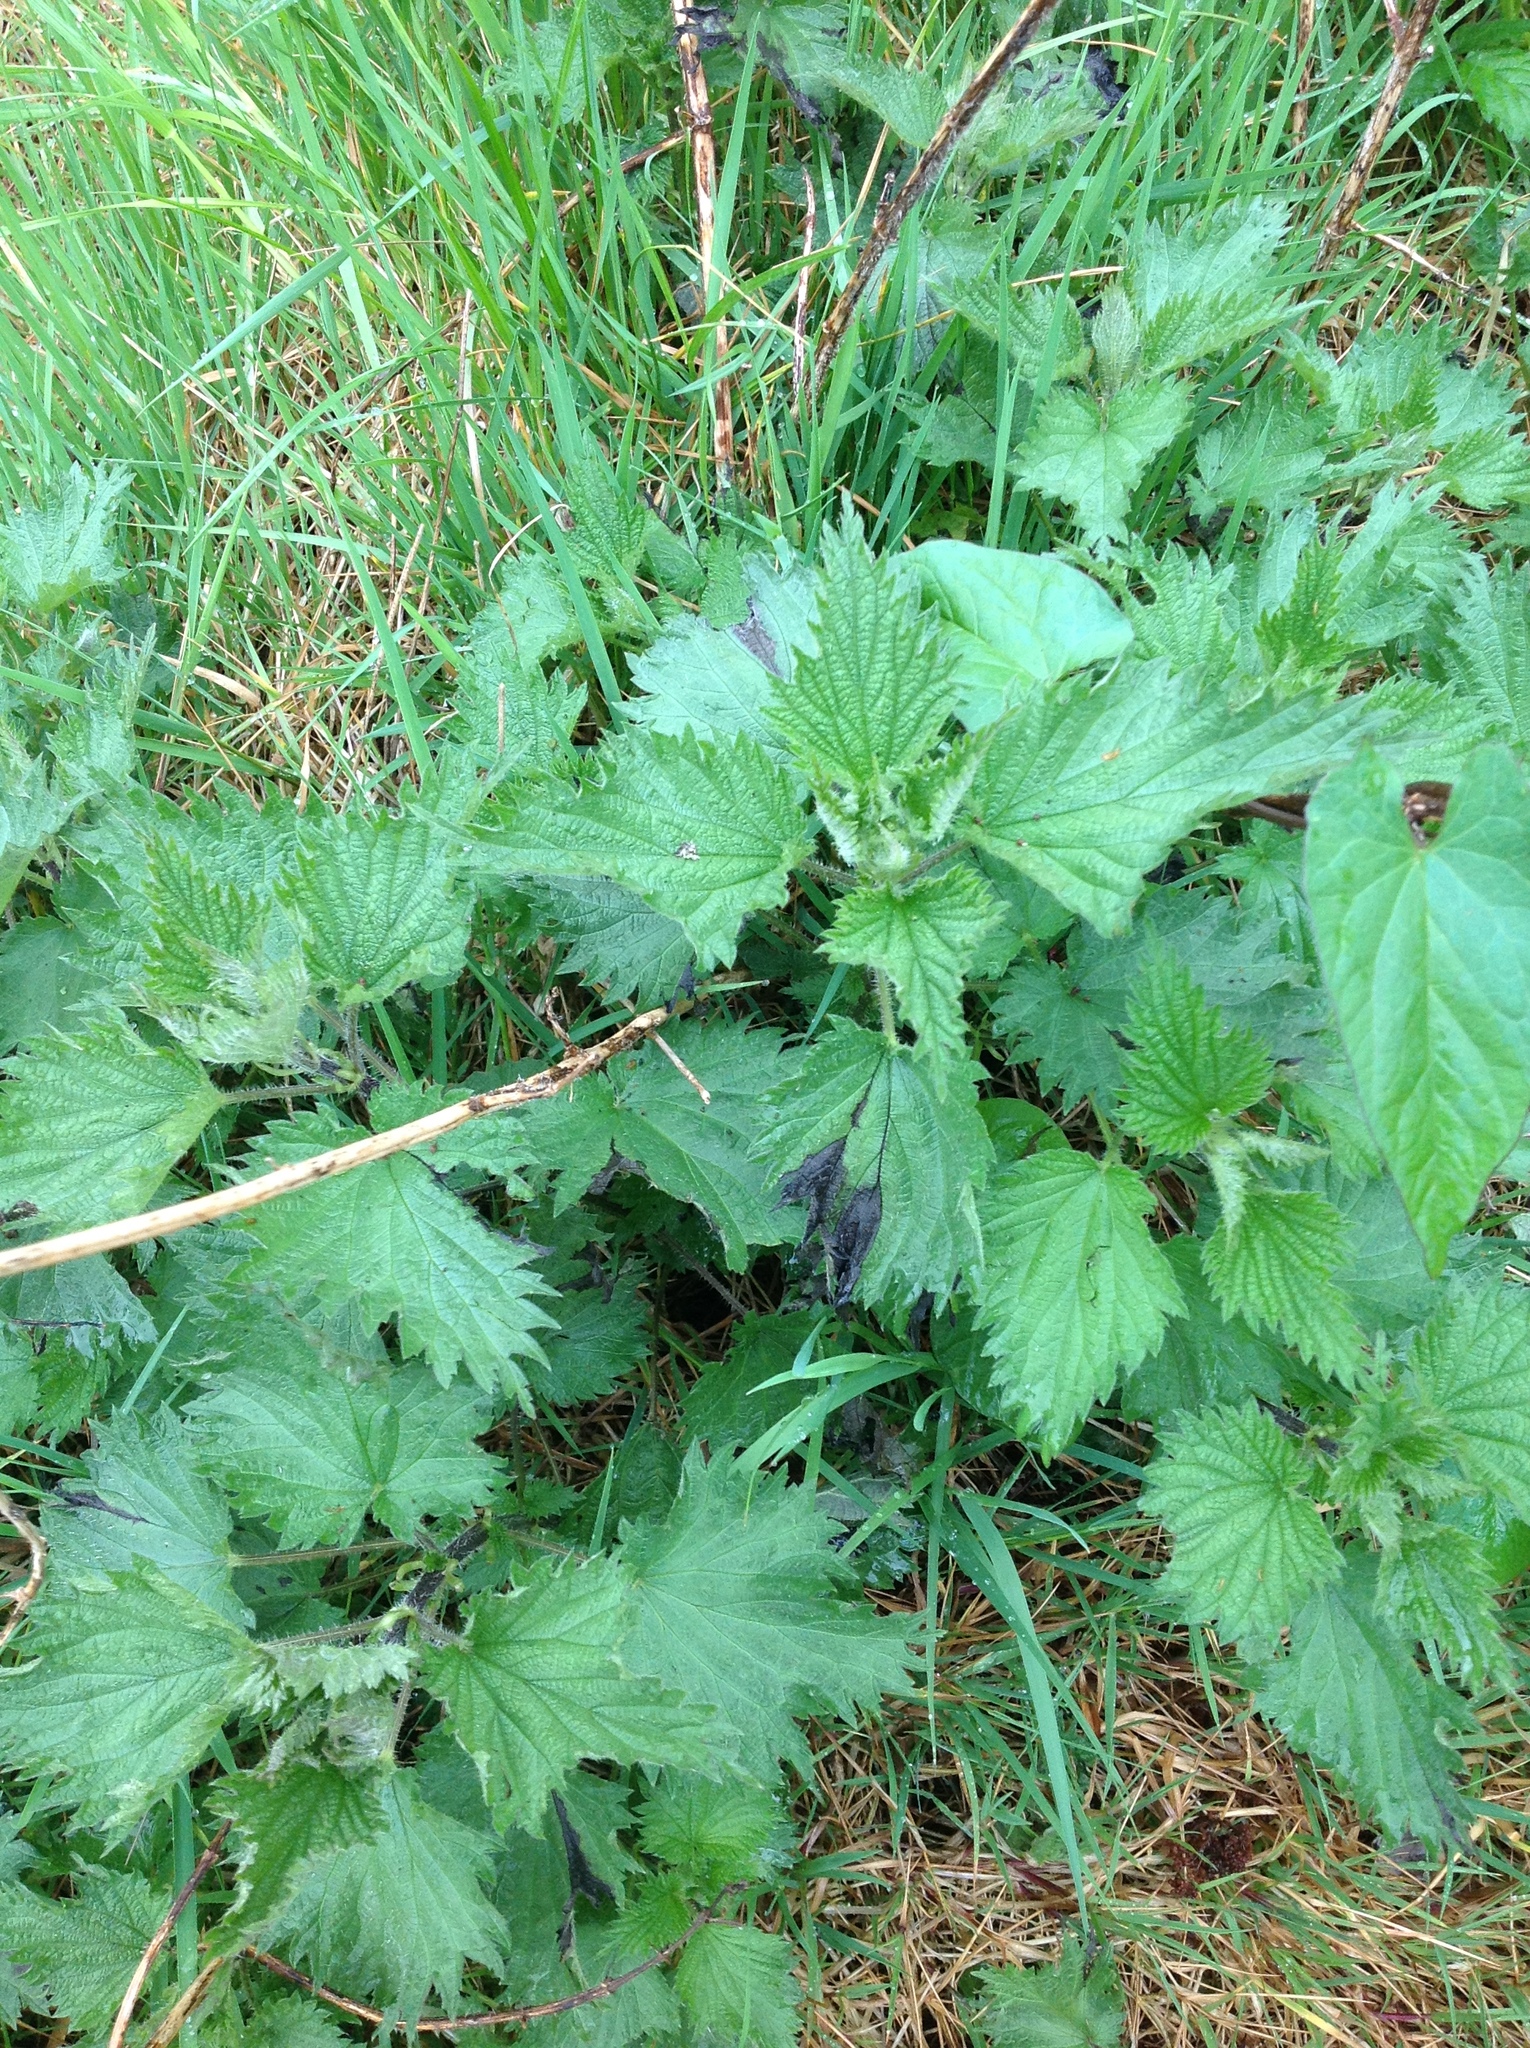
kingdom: Plantae
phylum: Tracheophyta
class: Magnoliopsida
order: Rosales
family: Urticaceae
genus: Urtica
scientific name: Urtica dioica
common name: Common nettle
